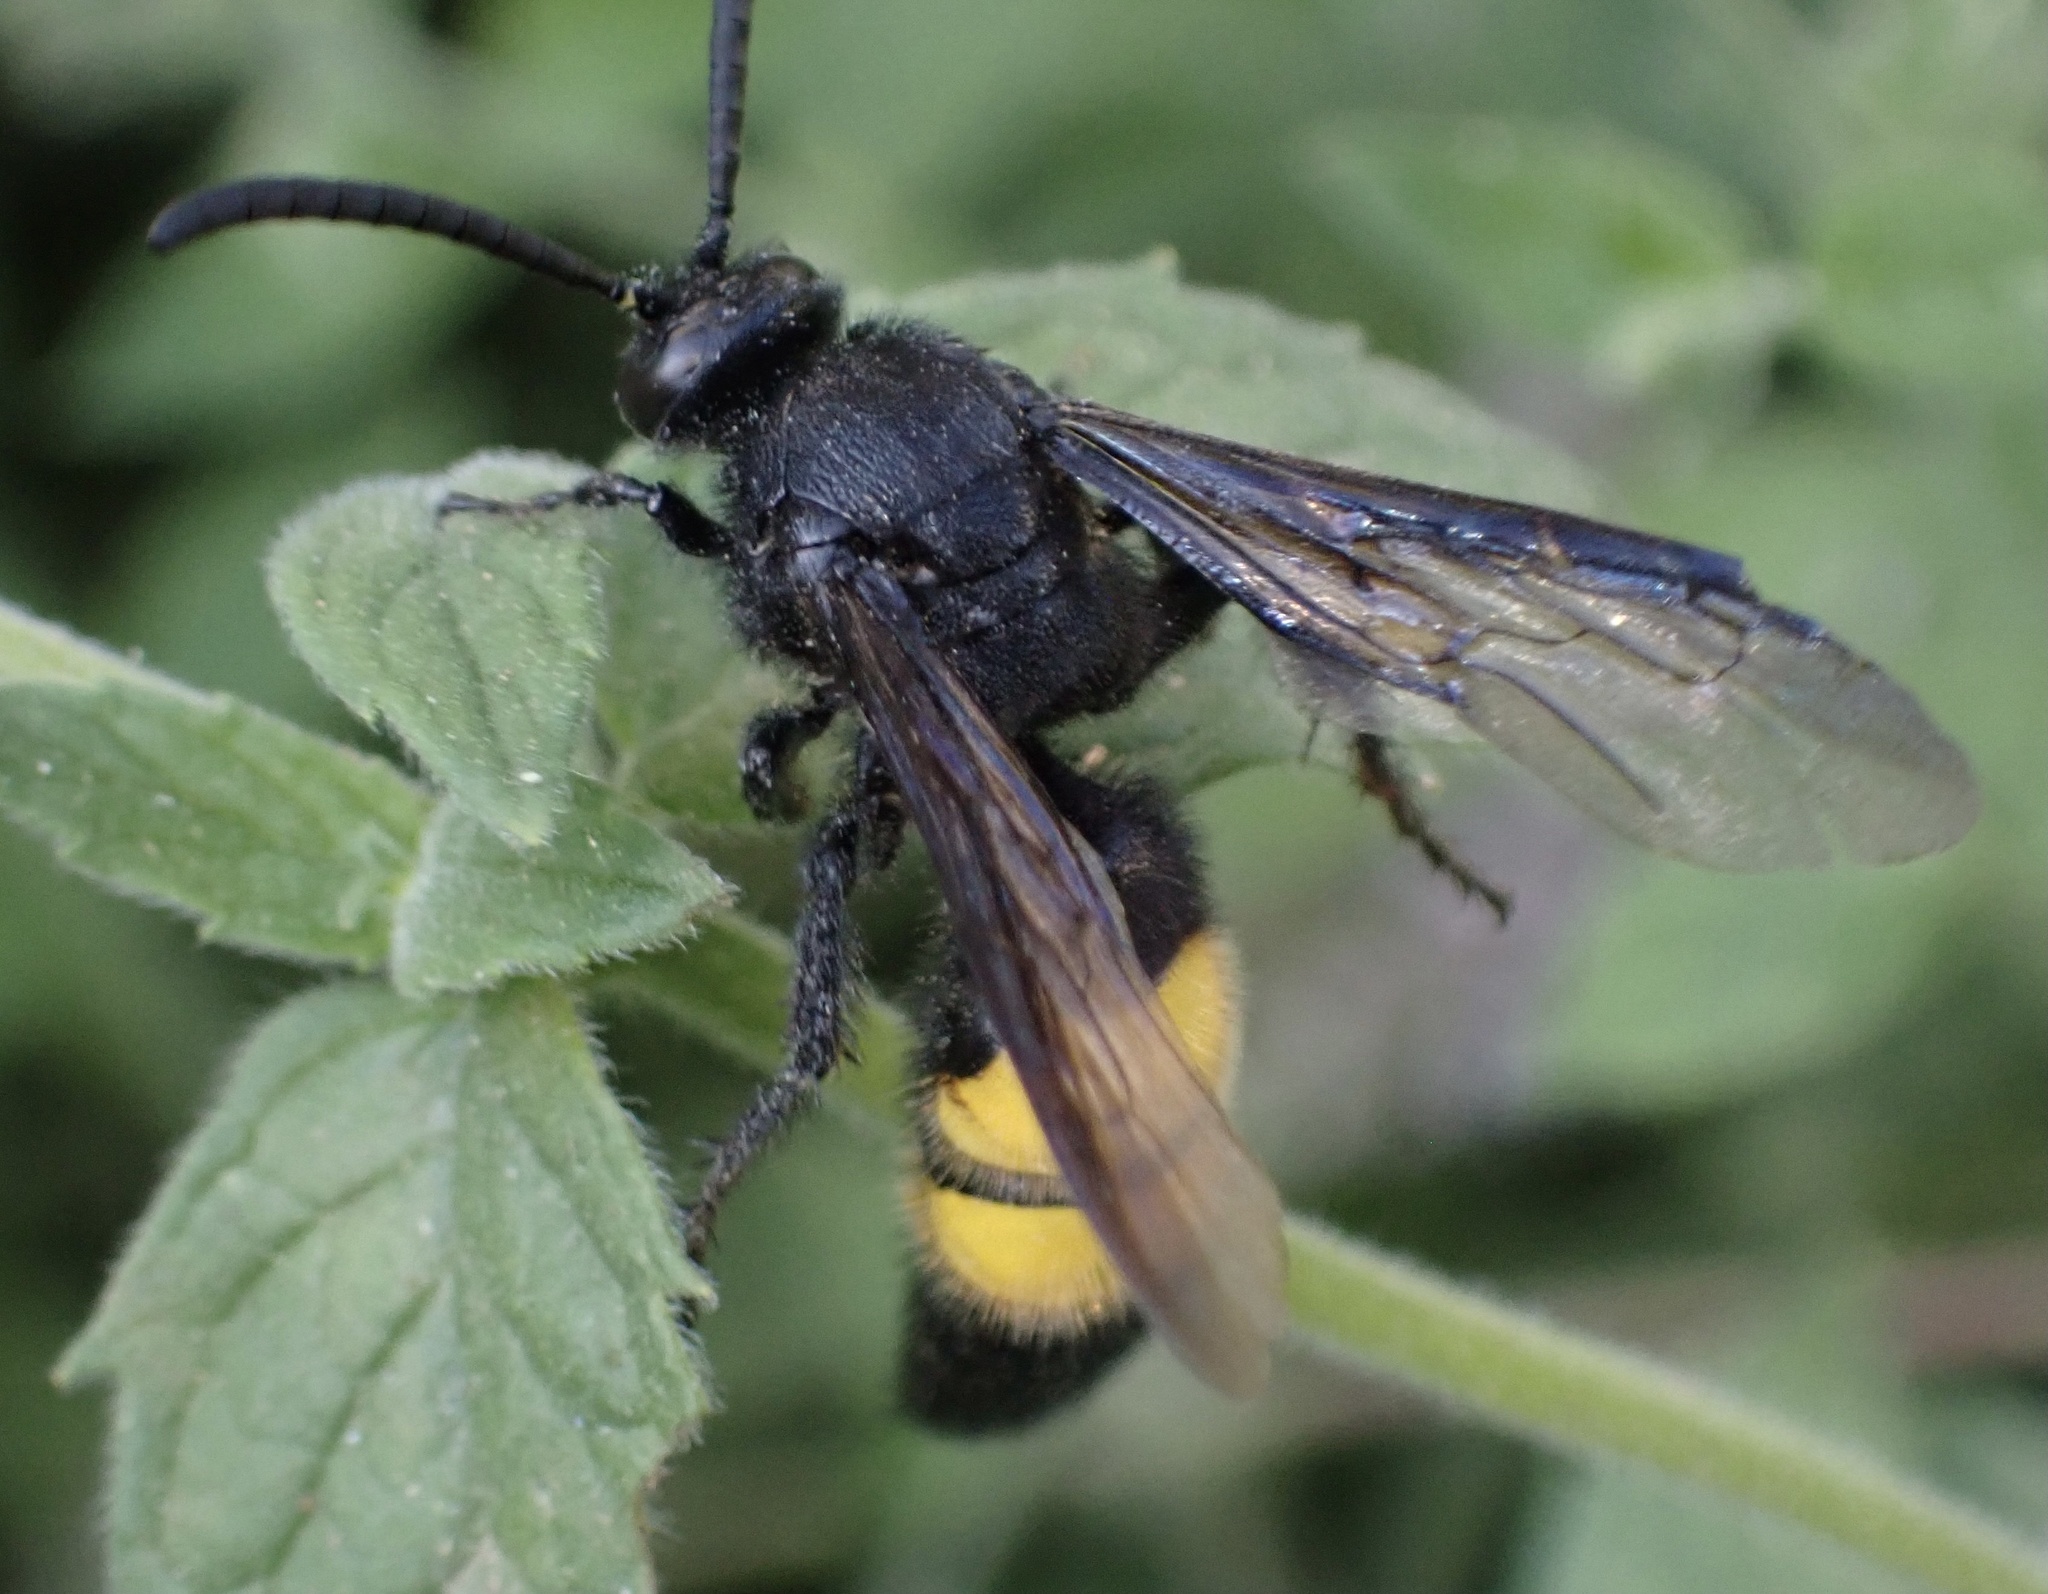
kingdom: Animalia
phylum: Arthropoda
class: Insecta
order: Hymenoptera
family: Scoliidae
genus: Scolia
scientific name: Scolia hirta
